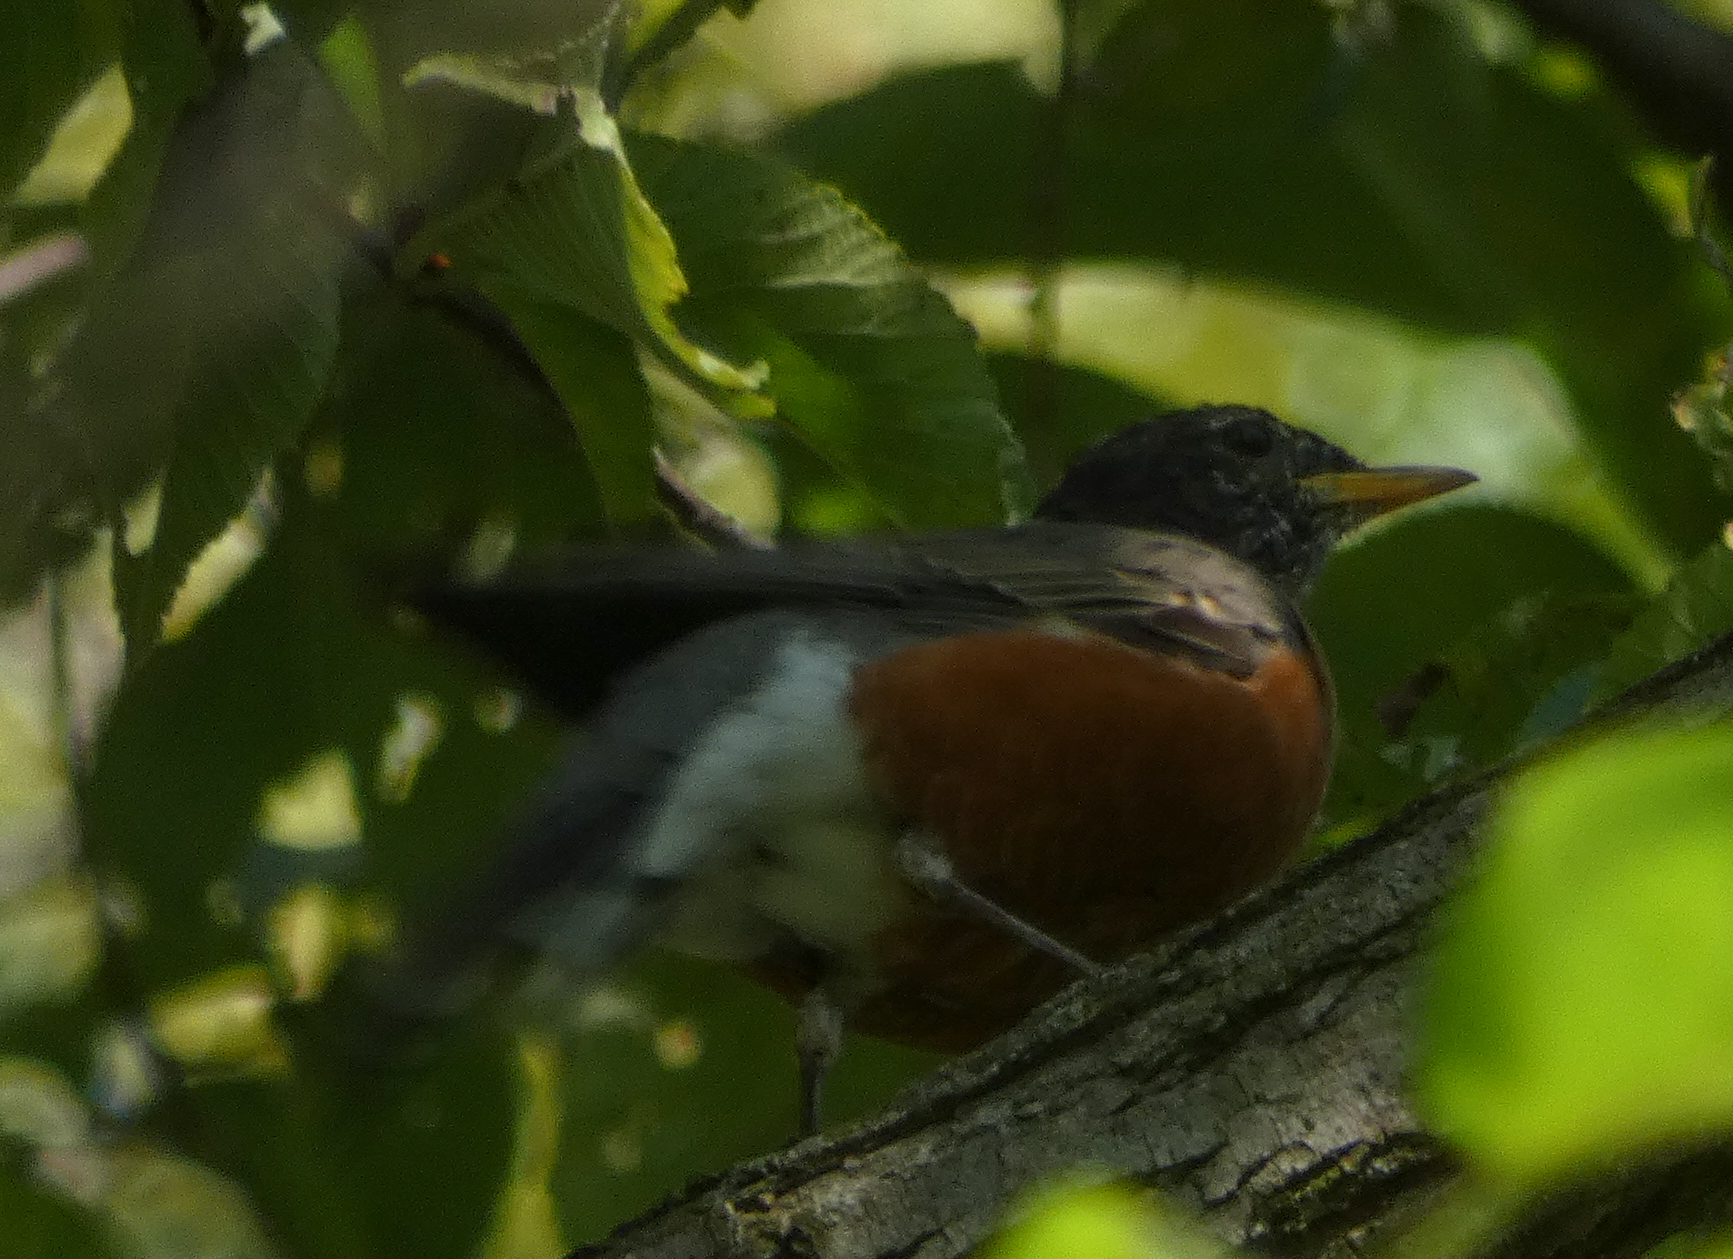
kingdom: Animalia
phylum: Chordata
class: Aves
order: Passeriformes
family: Turdidae
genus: Turdus
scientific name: Turdus migratorius
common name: American robin
